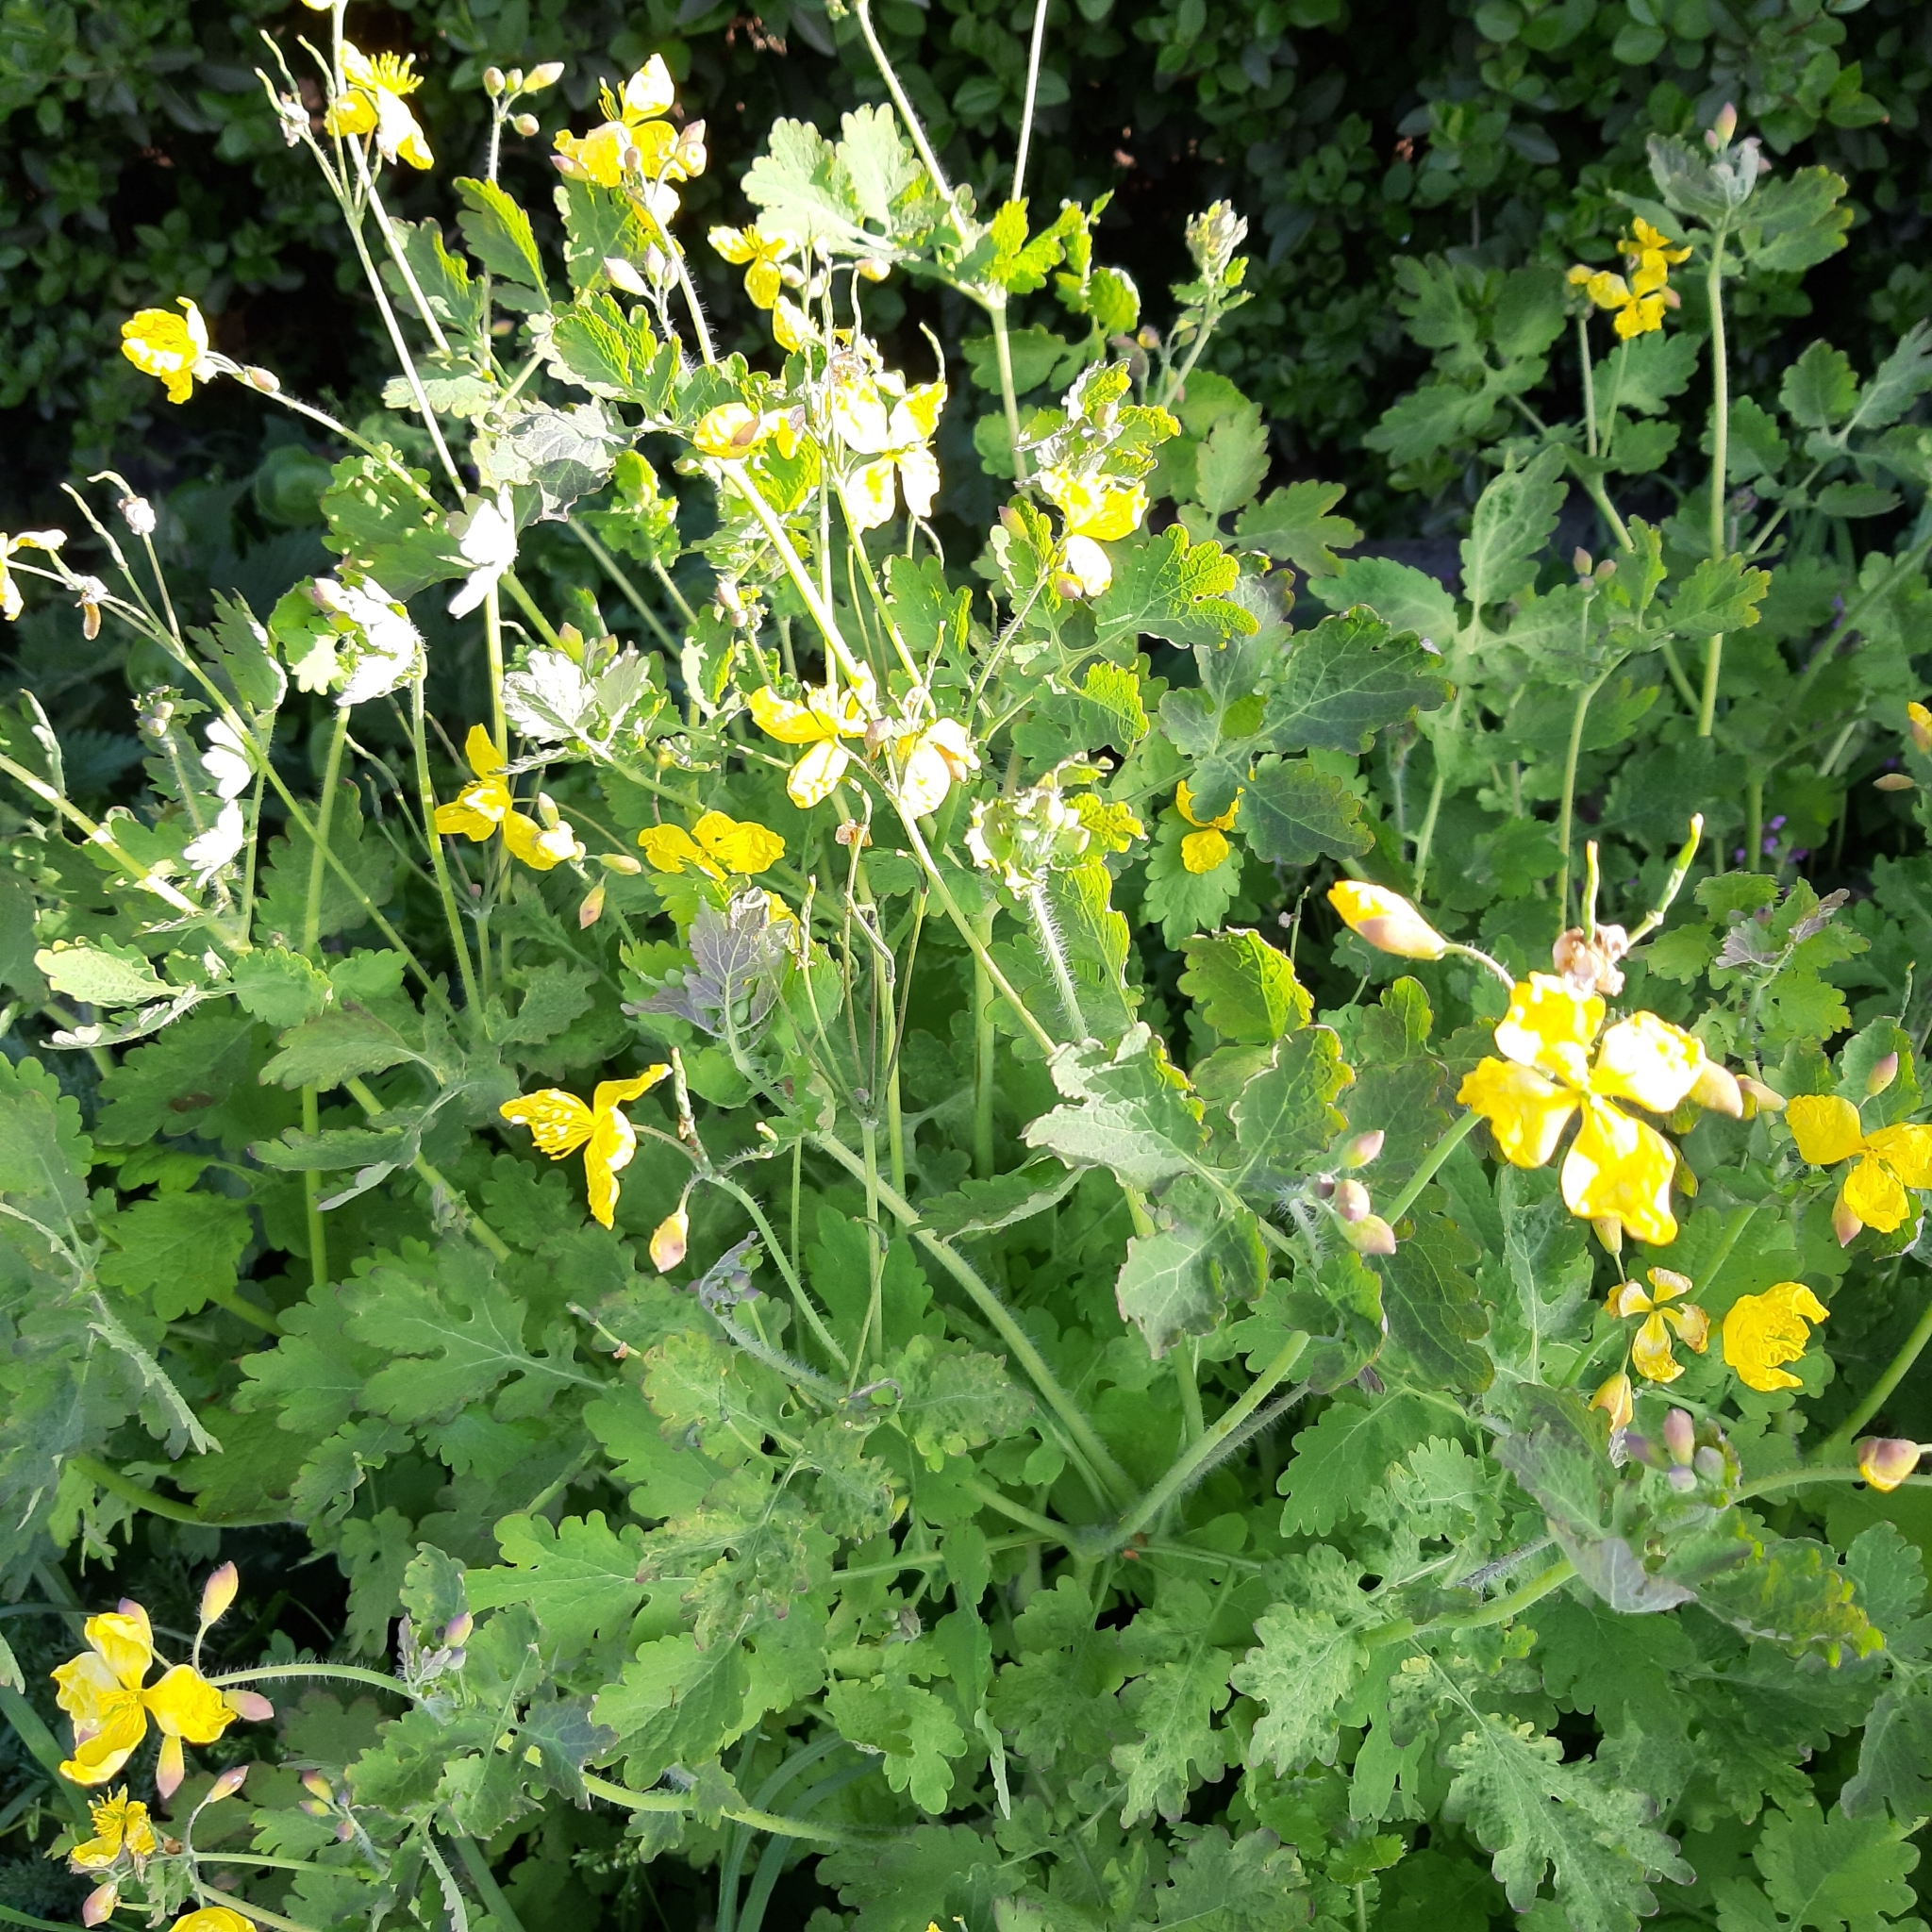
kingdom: Plantae
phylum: Tracheophyta
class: Magnoliopsida
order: Ranunculales
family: Papaveraceae
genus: Chelidonium
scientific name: Chelidonium majus
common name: Greater celandine
